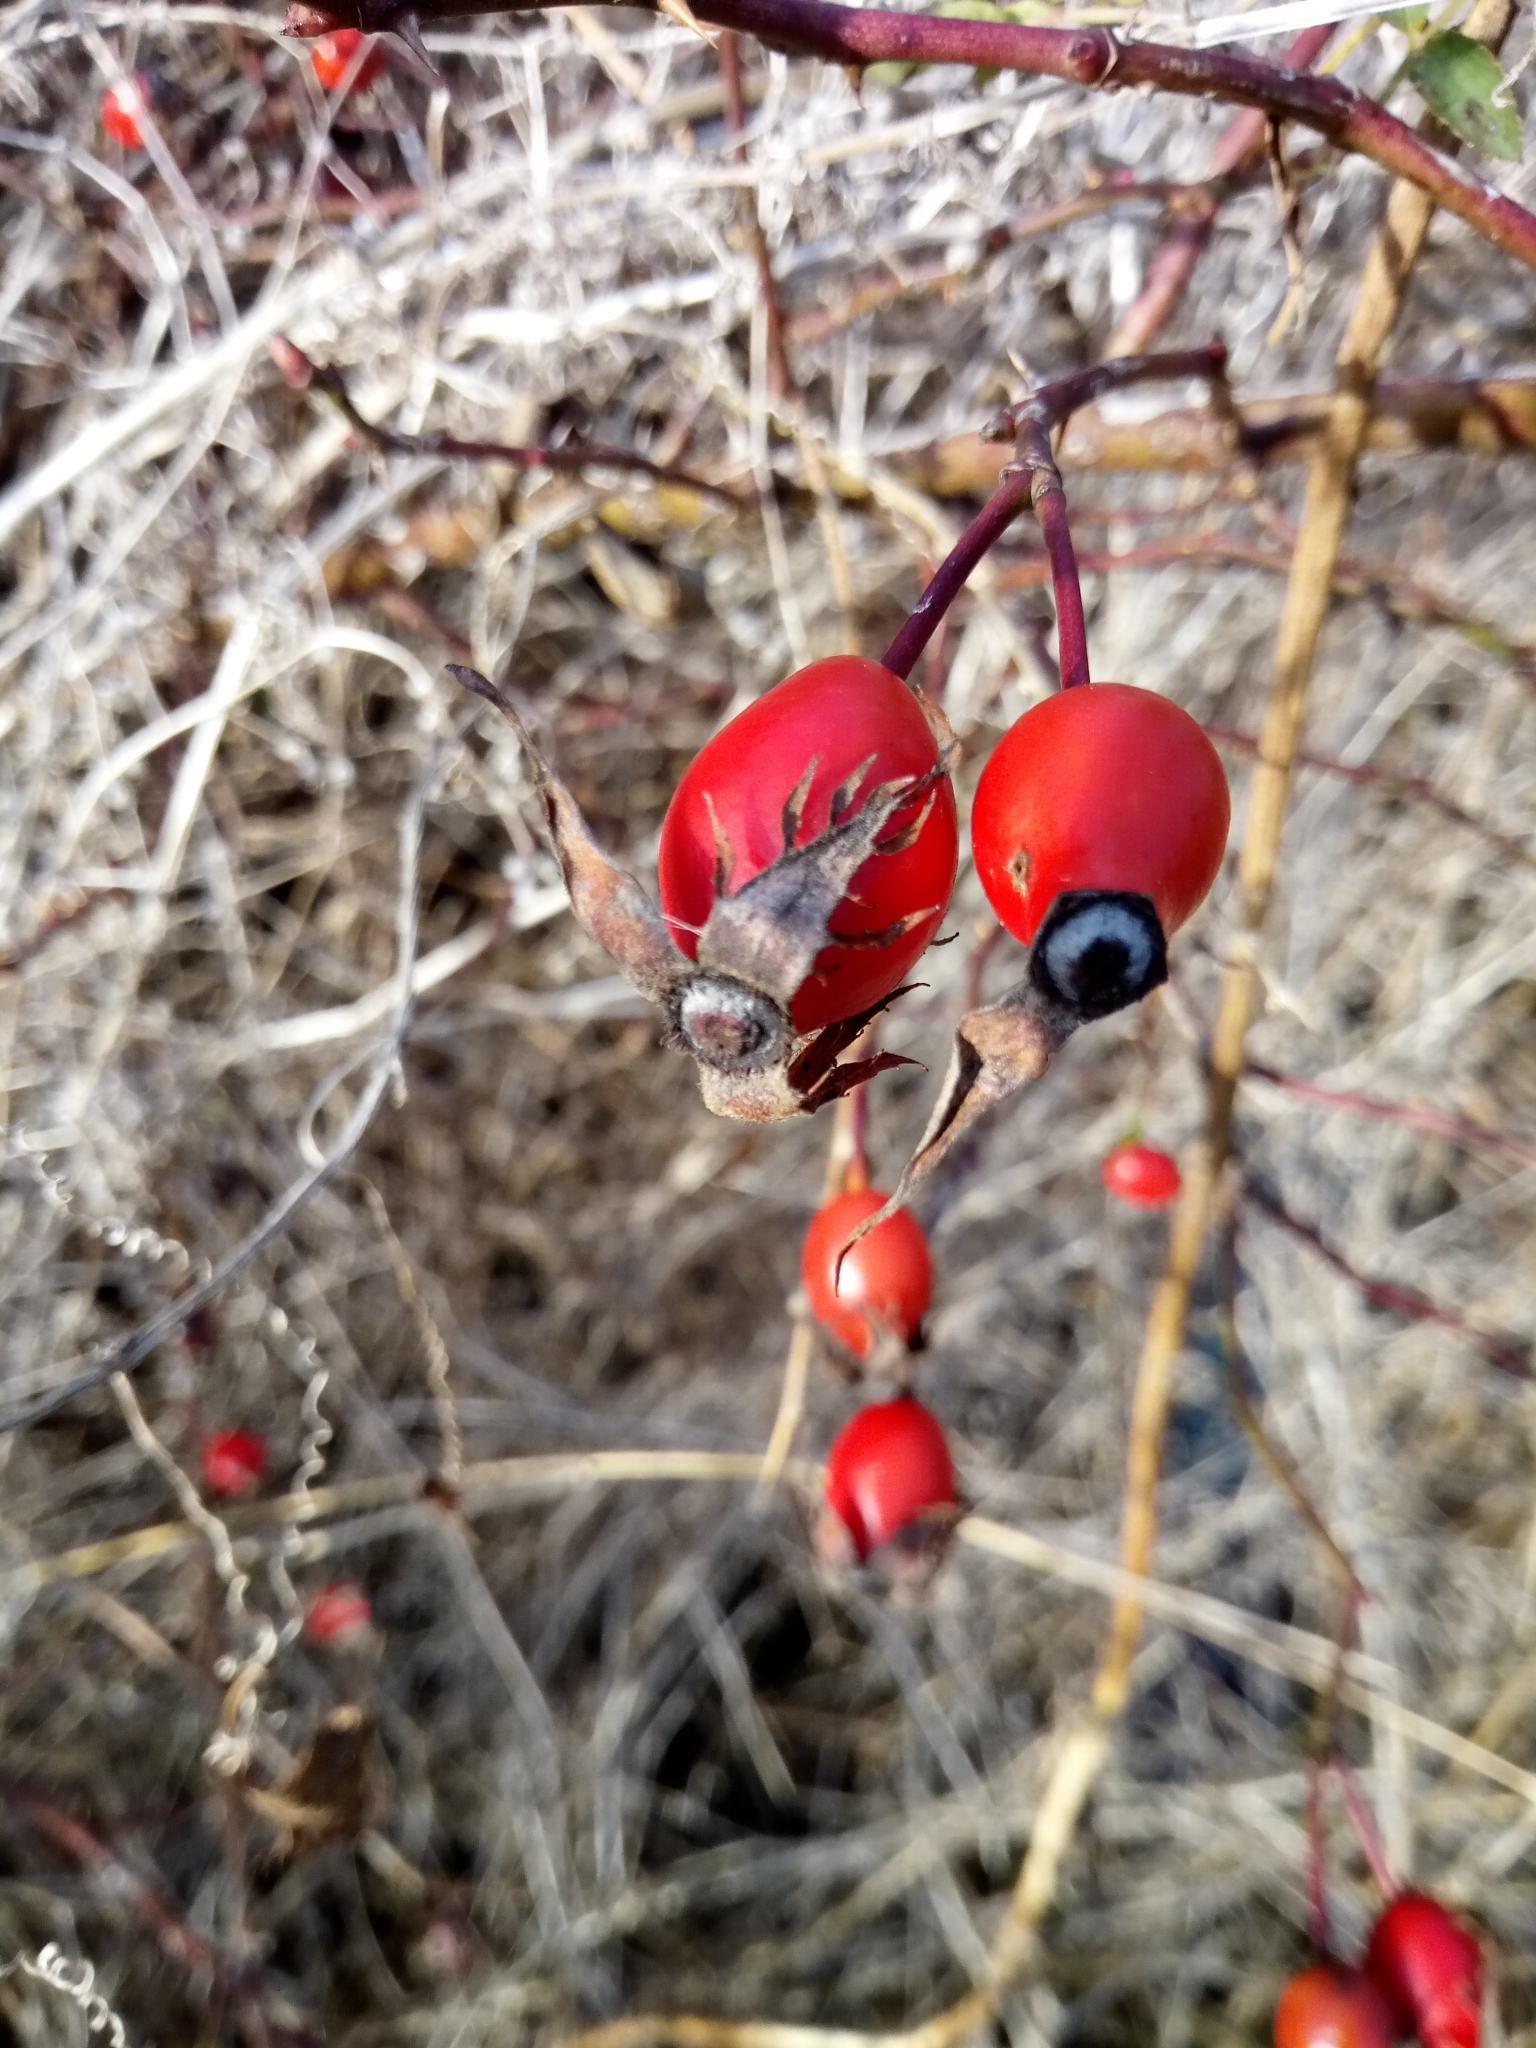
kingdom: Plantae
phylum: Tracheophyta
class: Magnoliopsida
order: Rosales
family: Rosaceae
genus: Rosa
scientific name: Rosa canina
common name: Dog rose
